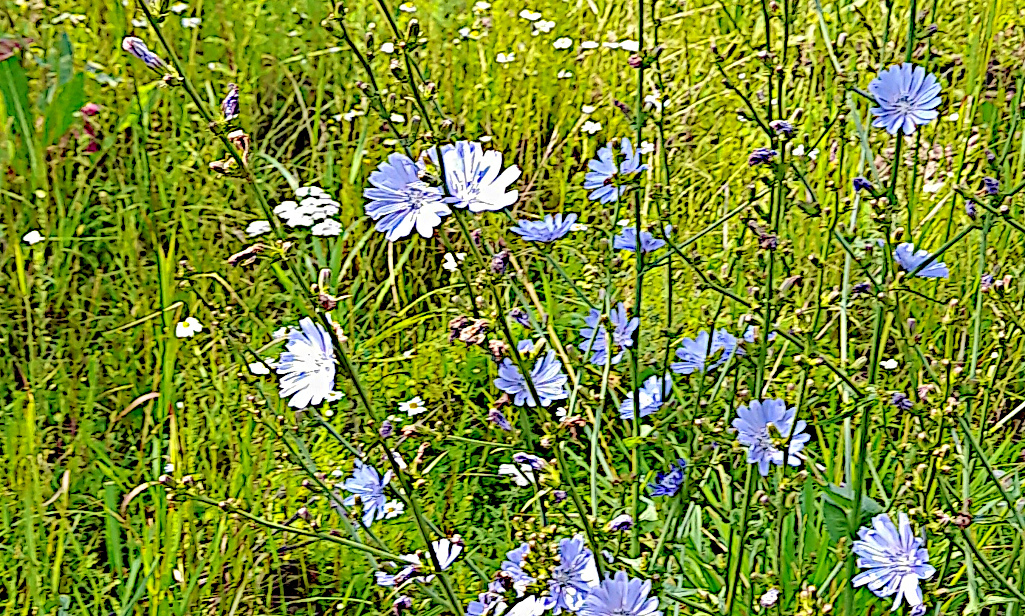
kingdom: Plantae
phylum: Tracheophyta
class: Magnoliopsida
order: Asterales
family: Asteraceae
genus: Cichorium
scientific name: Cichorium intybus
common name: Chicory
